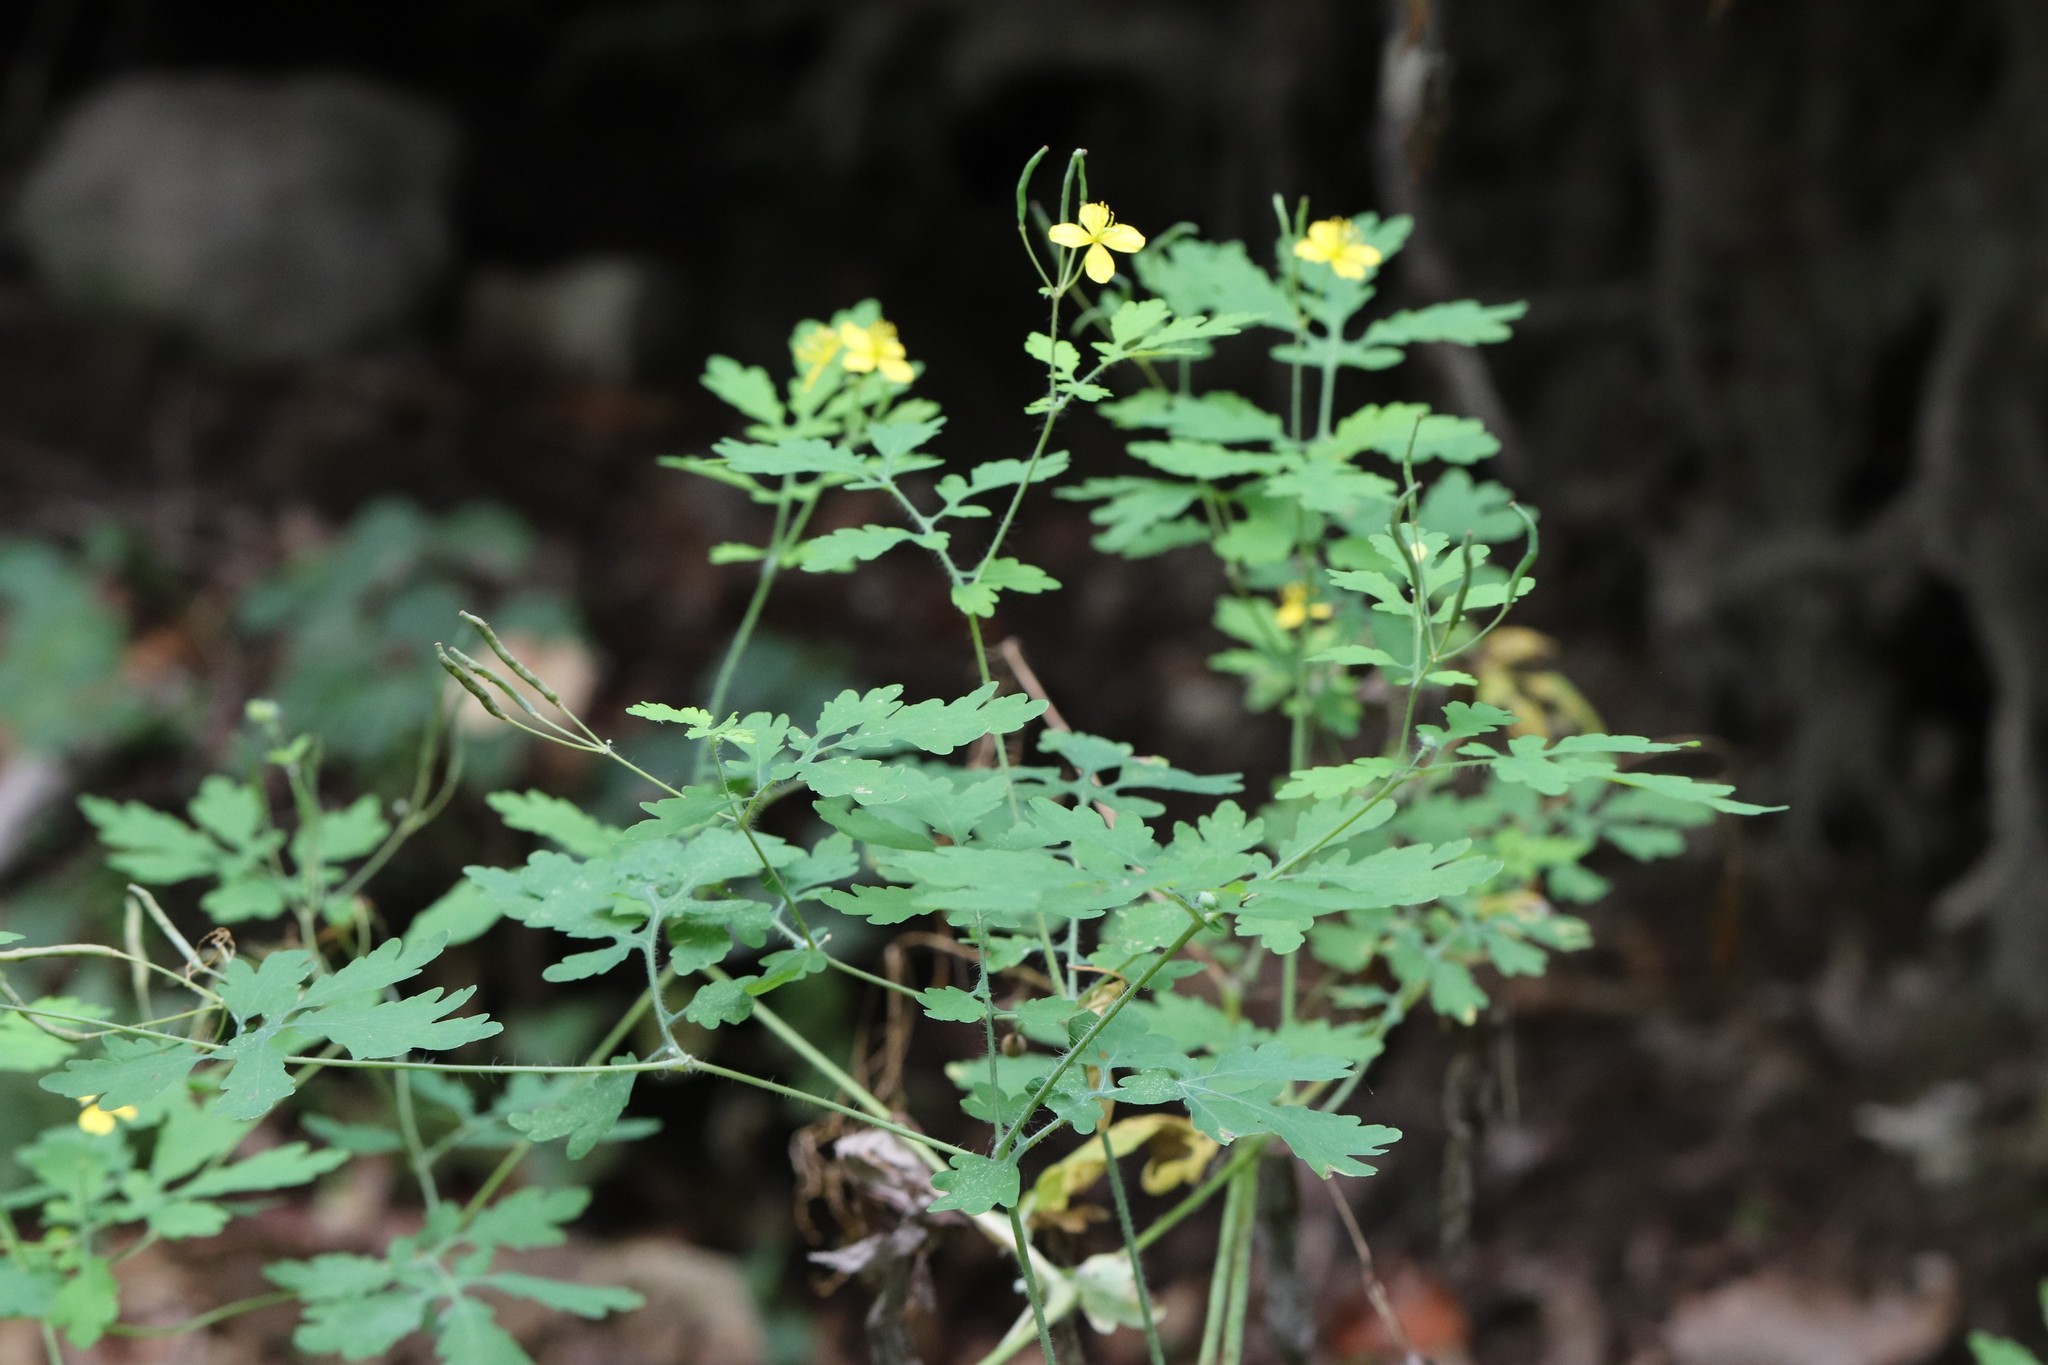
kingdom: Plantae
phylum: Tracheophyta
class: Magnoliopsida
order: Ranunculales
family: Papaveraceae
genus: Chelidonium
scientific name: Chelidonium majus
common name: Greater celandine
